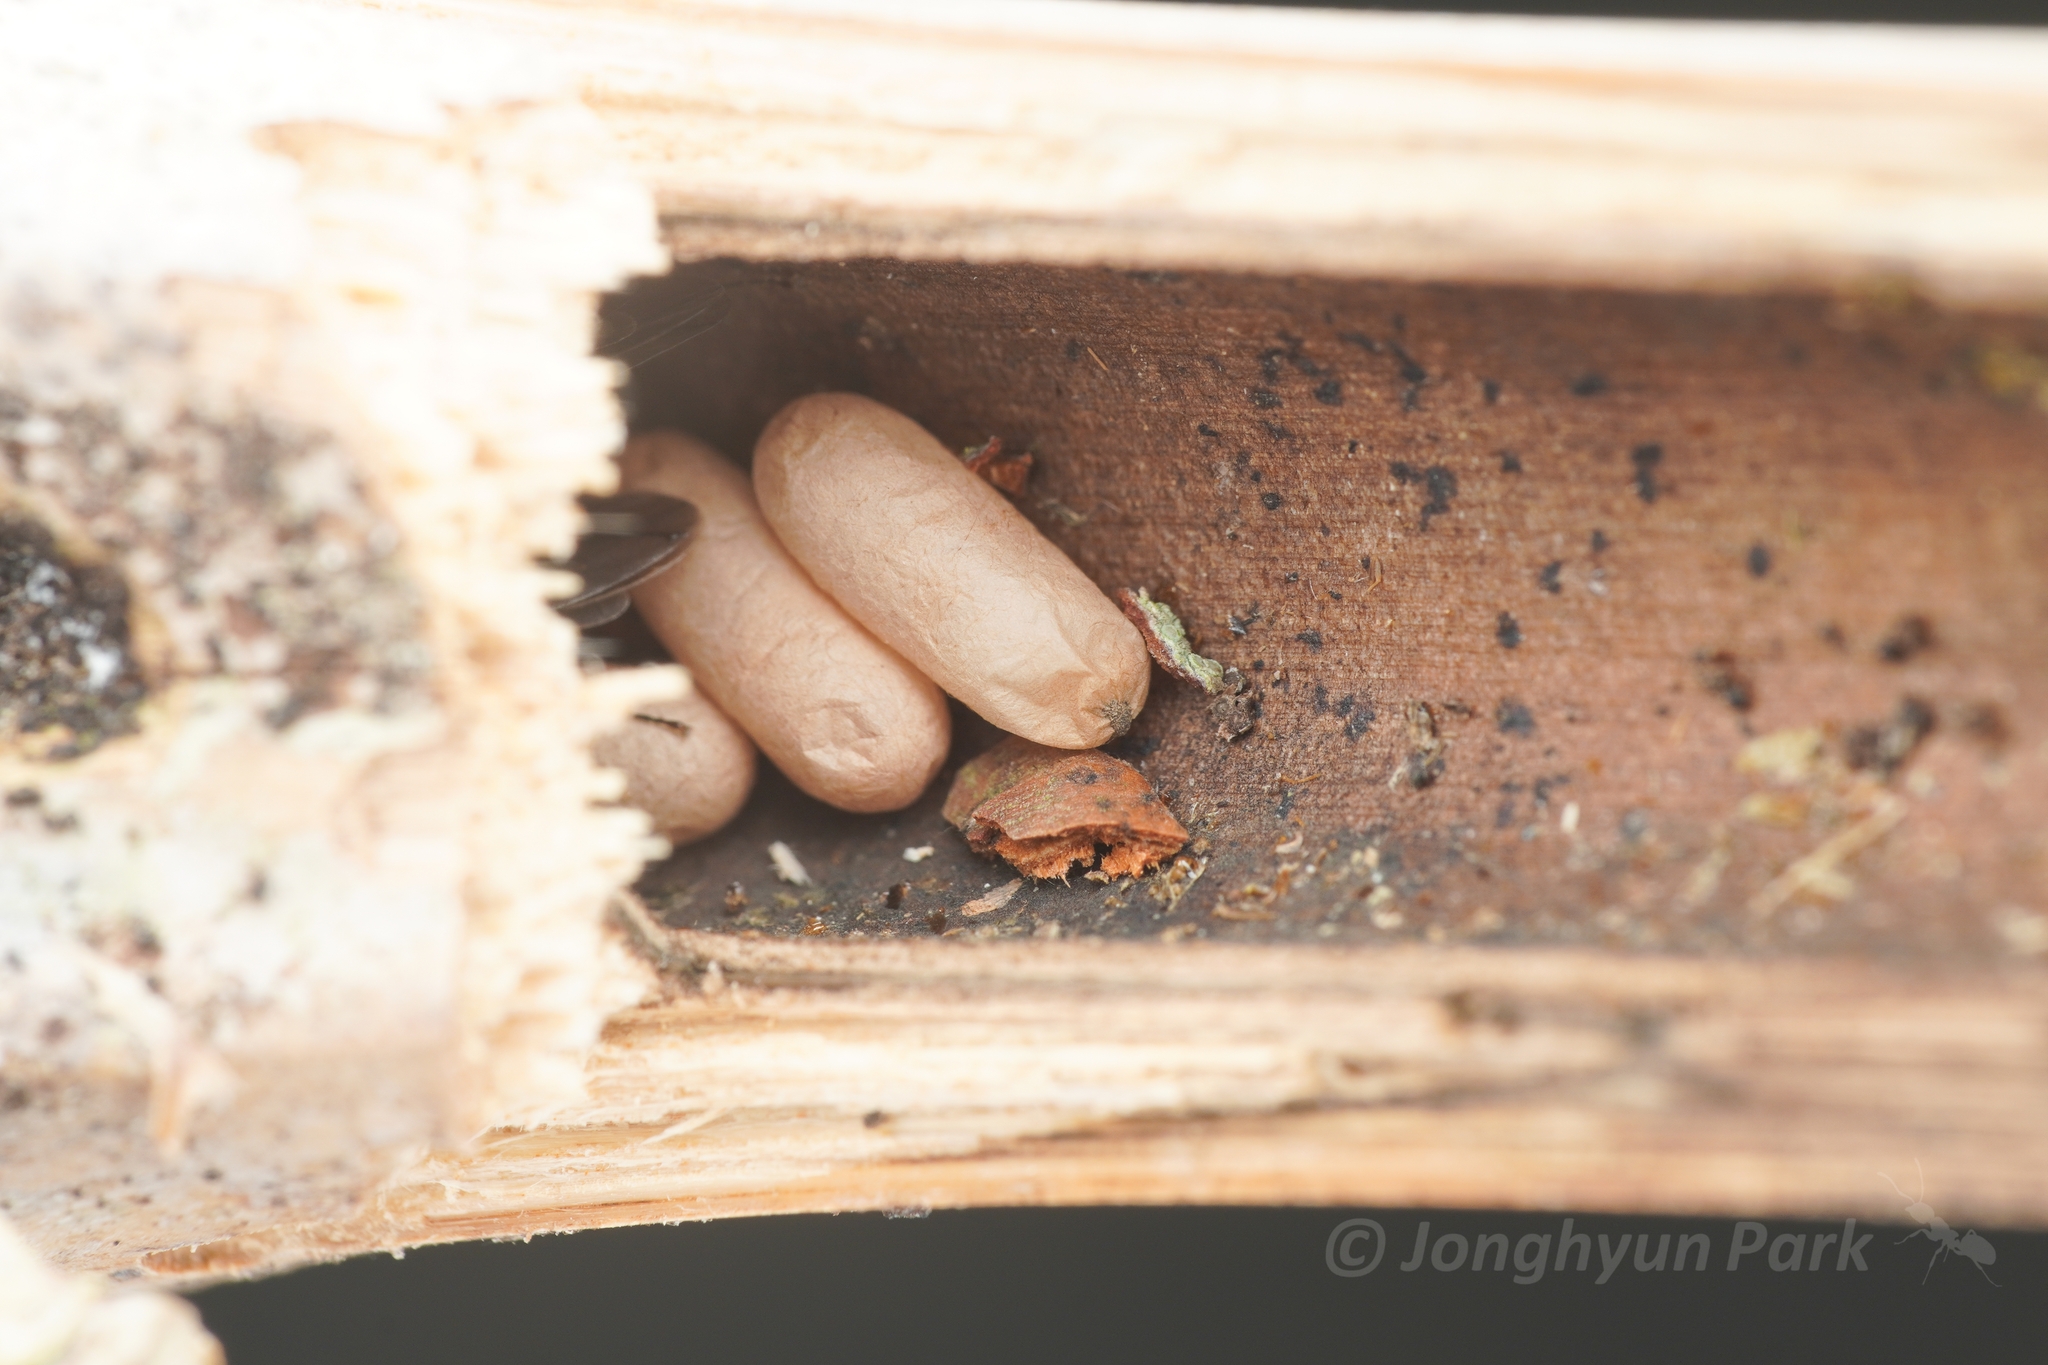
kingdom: Animalia
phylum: Arthropoda
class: Insecta
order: Hymenoptera
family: Formicidae
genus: Polyrhachis
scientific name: Polyrhachis moesta
